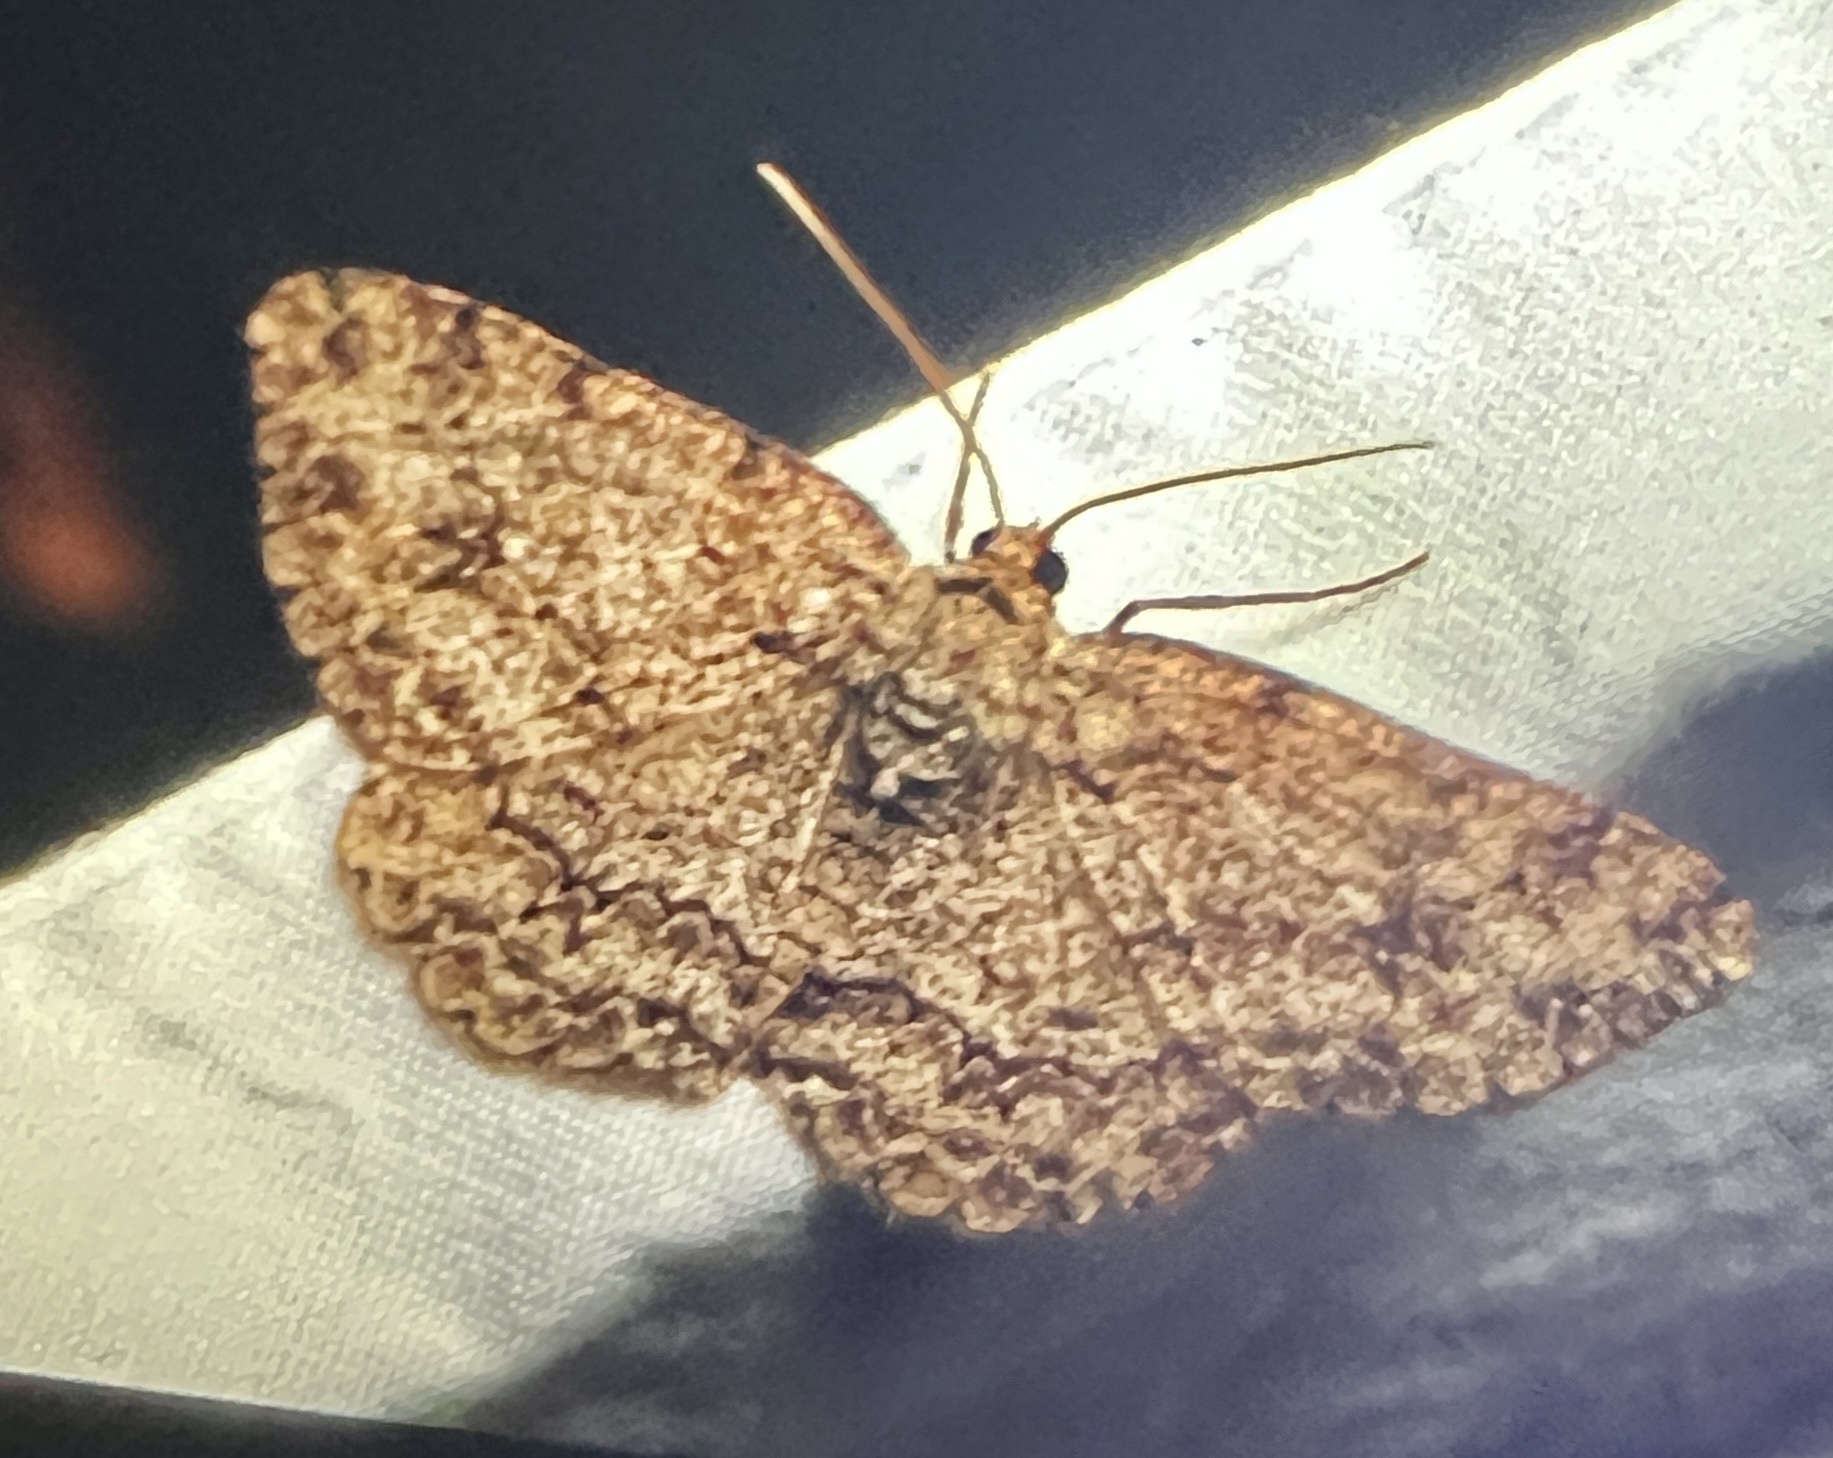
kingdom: Animalia
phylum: Arthropoda
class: Insecta
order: Lepidoptera
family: Geometridae
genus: Ectropis
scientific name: Ectropis crepuscularia
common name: Engrailed
